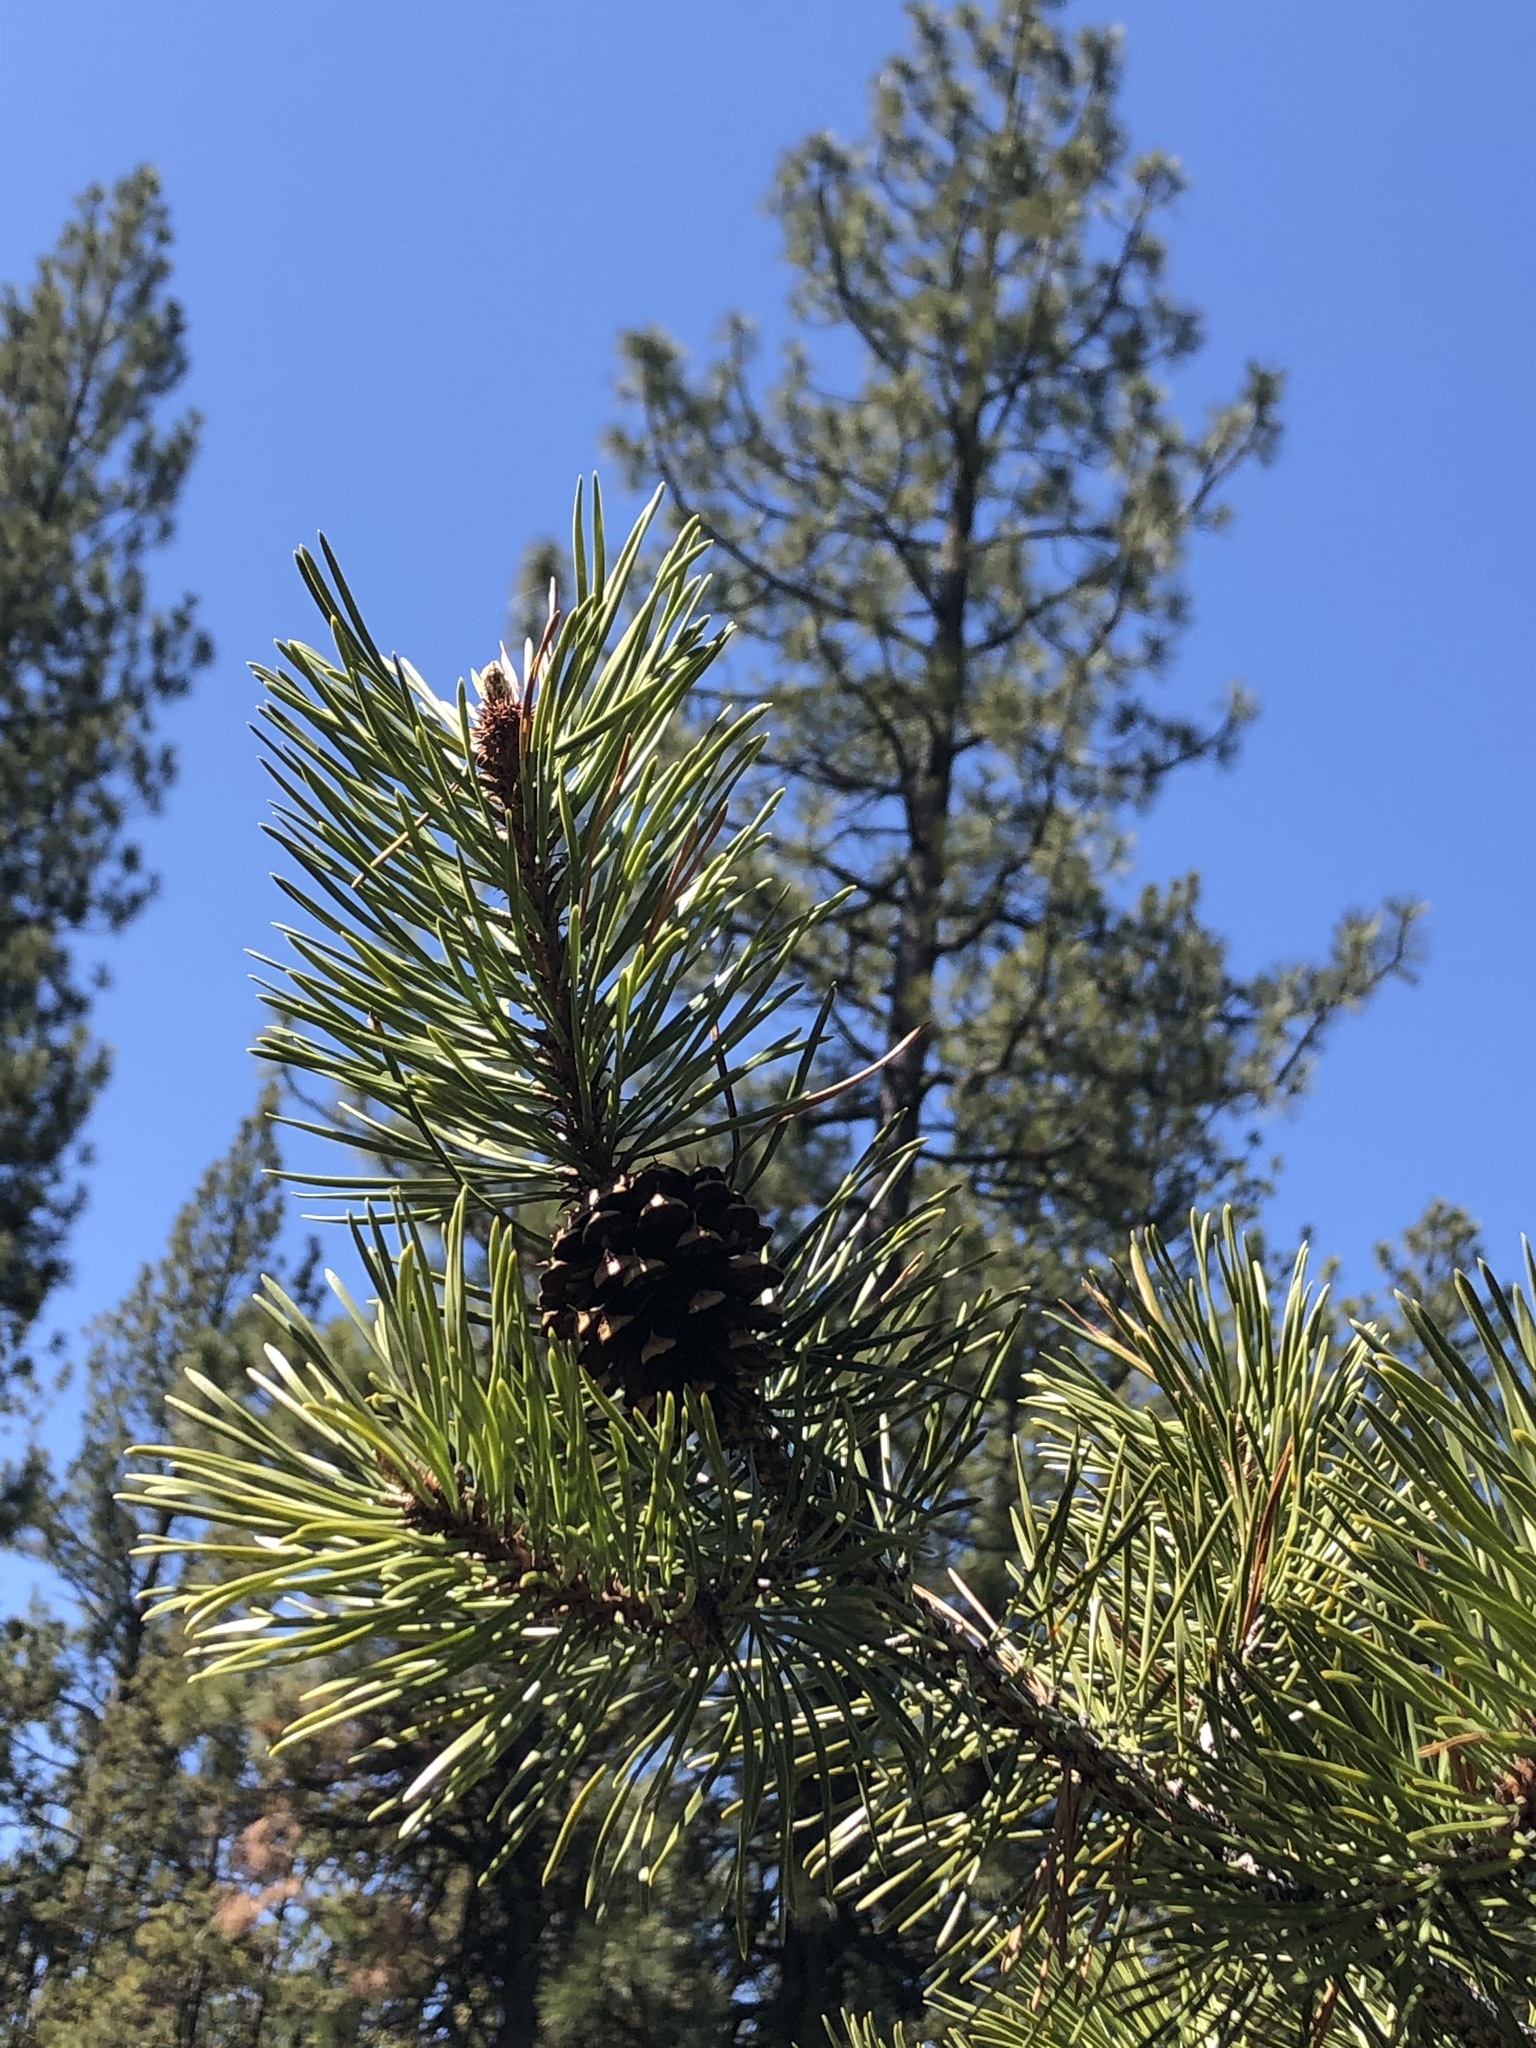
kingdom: Plantae
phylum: Tracheophyta
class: Pinopsida
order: Pinales
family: Pinaceae
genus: Pinus
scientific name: Pinus contorta
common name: Lodgepole pine
